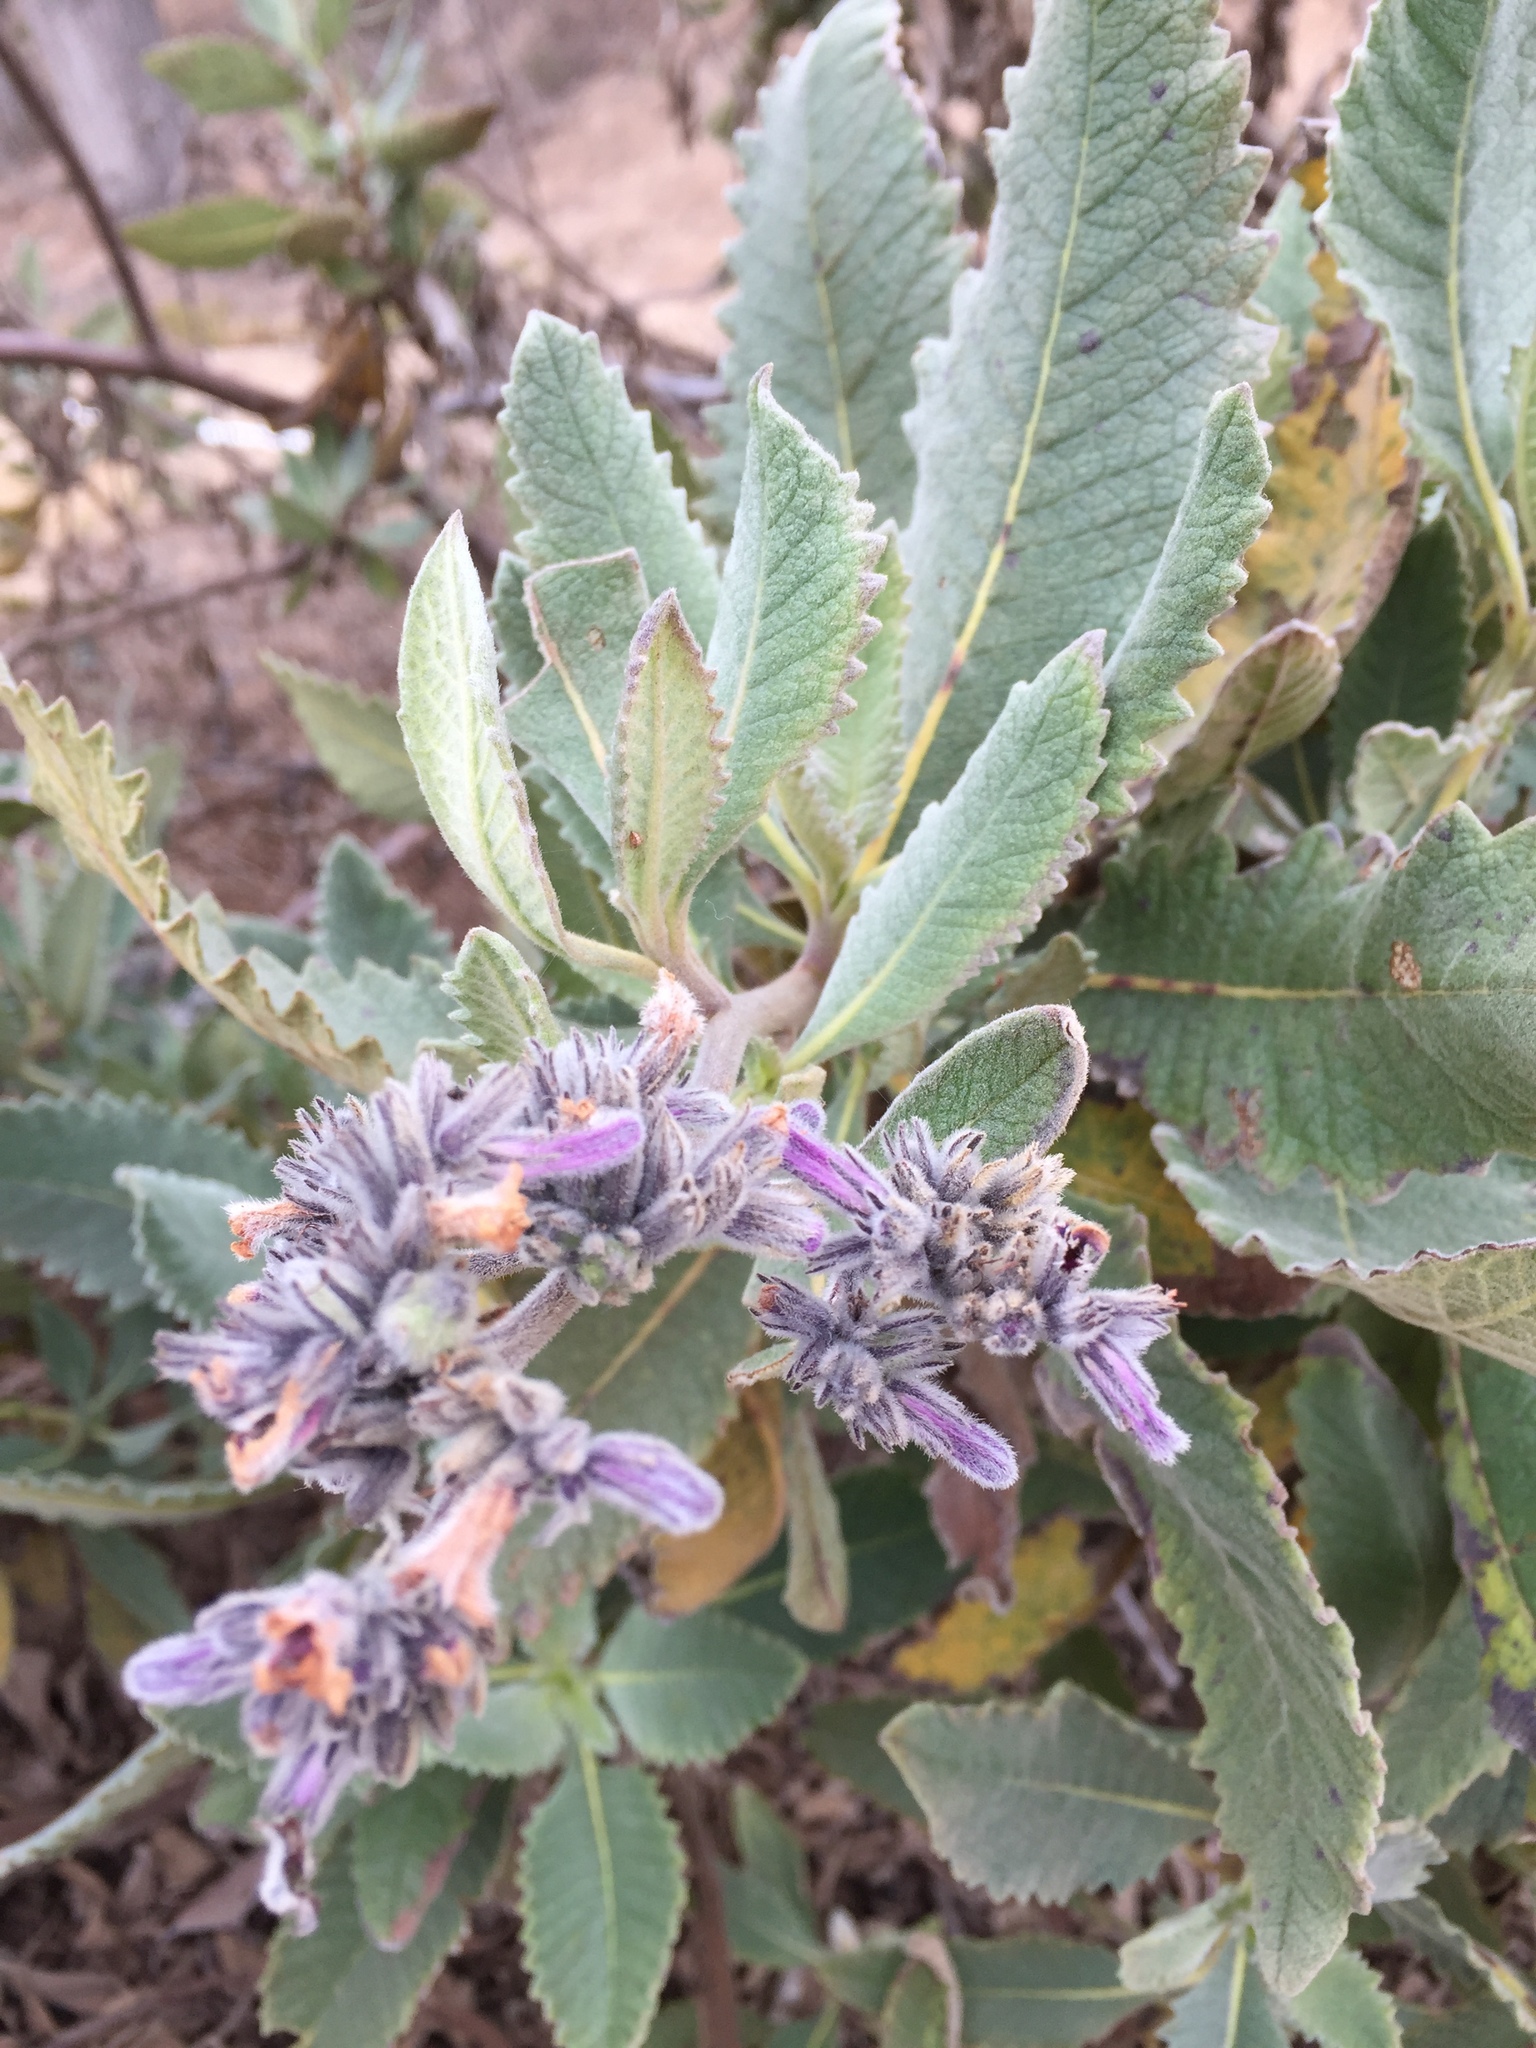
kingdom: Plantae
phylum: Tracheophyta
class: Magnoliopsida
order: Boraginales
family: Namaceae
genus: Eriodictyon
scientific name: Eriodictyon crassifolium
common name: Thick-leaf yerba-santa
